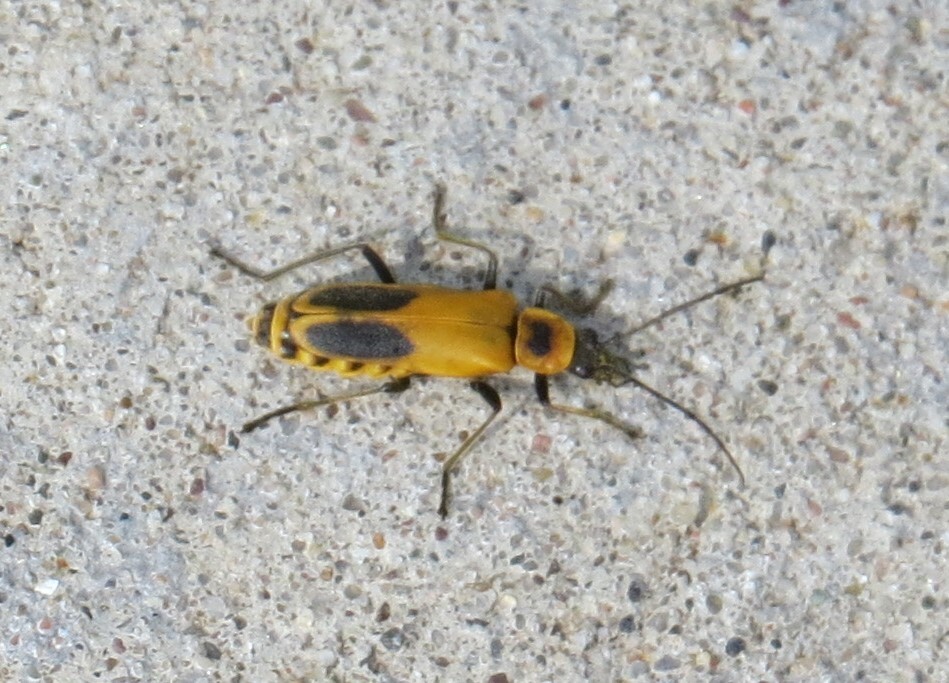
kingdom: Animalia
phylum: Arthropoda
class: Insecta
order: Coleoptera
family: Cantharidae
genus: Chauliognathus
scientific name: Chauliognathus pensylvanicus
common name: Goldenrod soldier beetle
